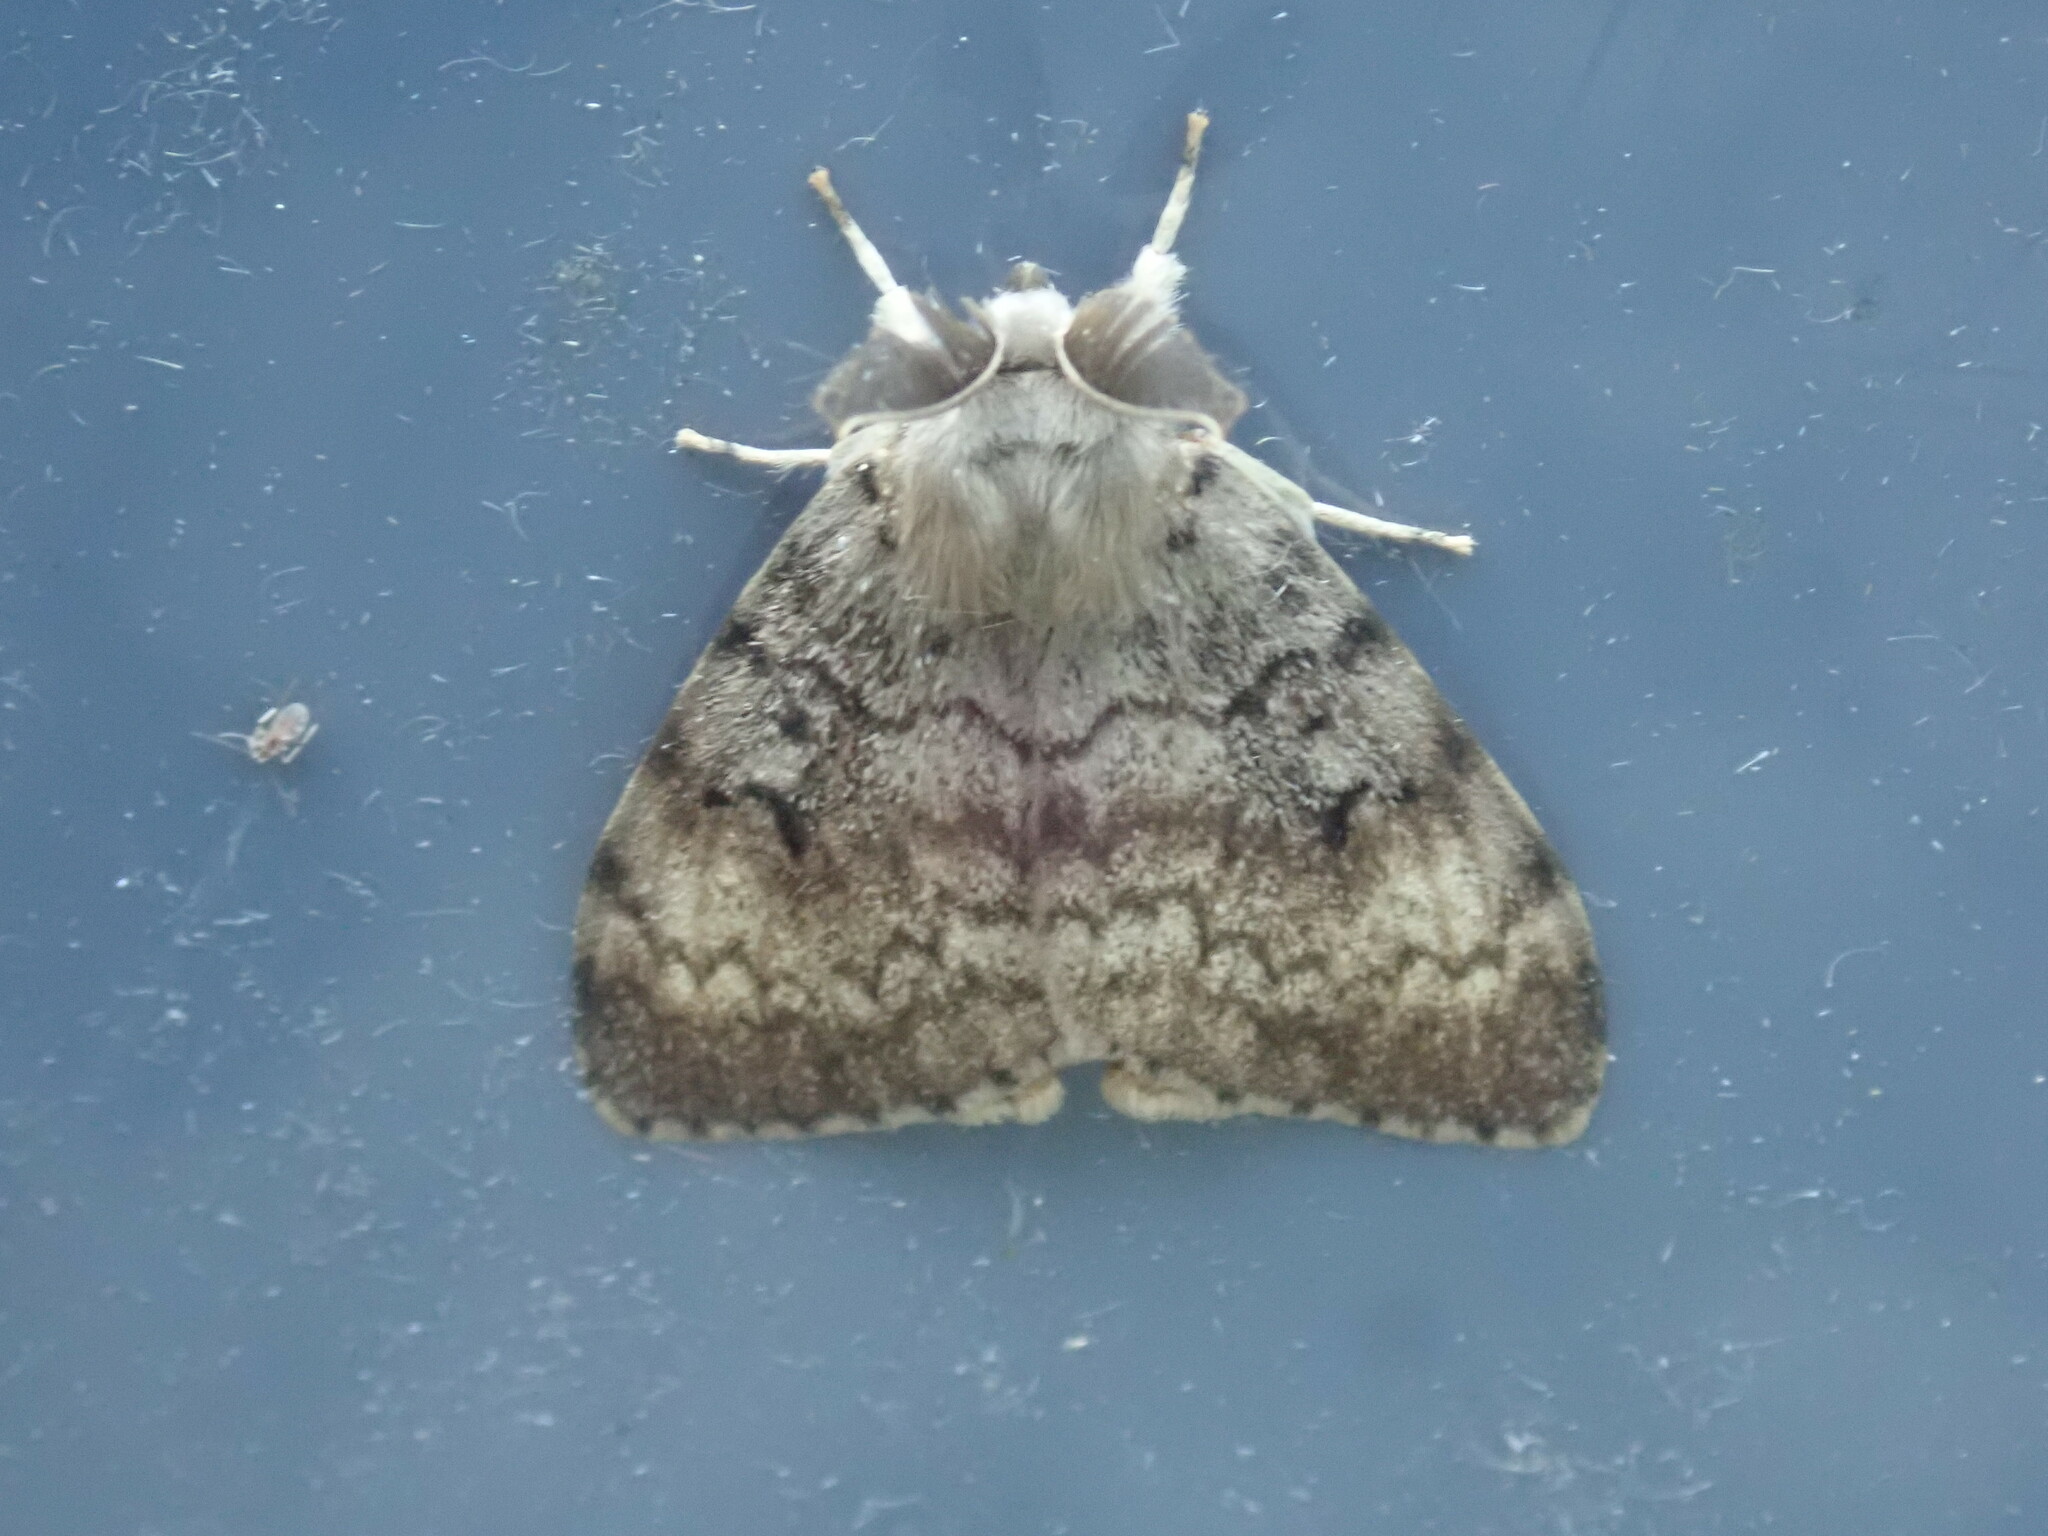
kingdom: Animalia
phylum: Arthropoda
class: Insecta
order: Lepidoptera
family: Erebidae
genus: Lymantria
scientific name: Lymantria dispar
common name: Gypsy moth
